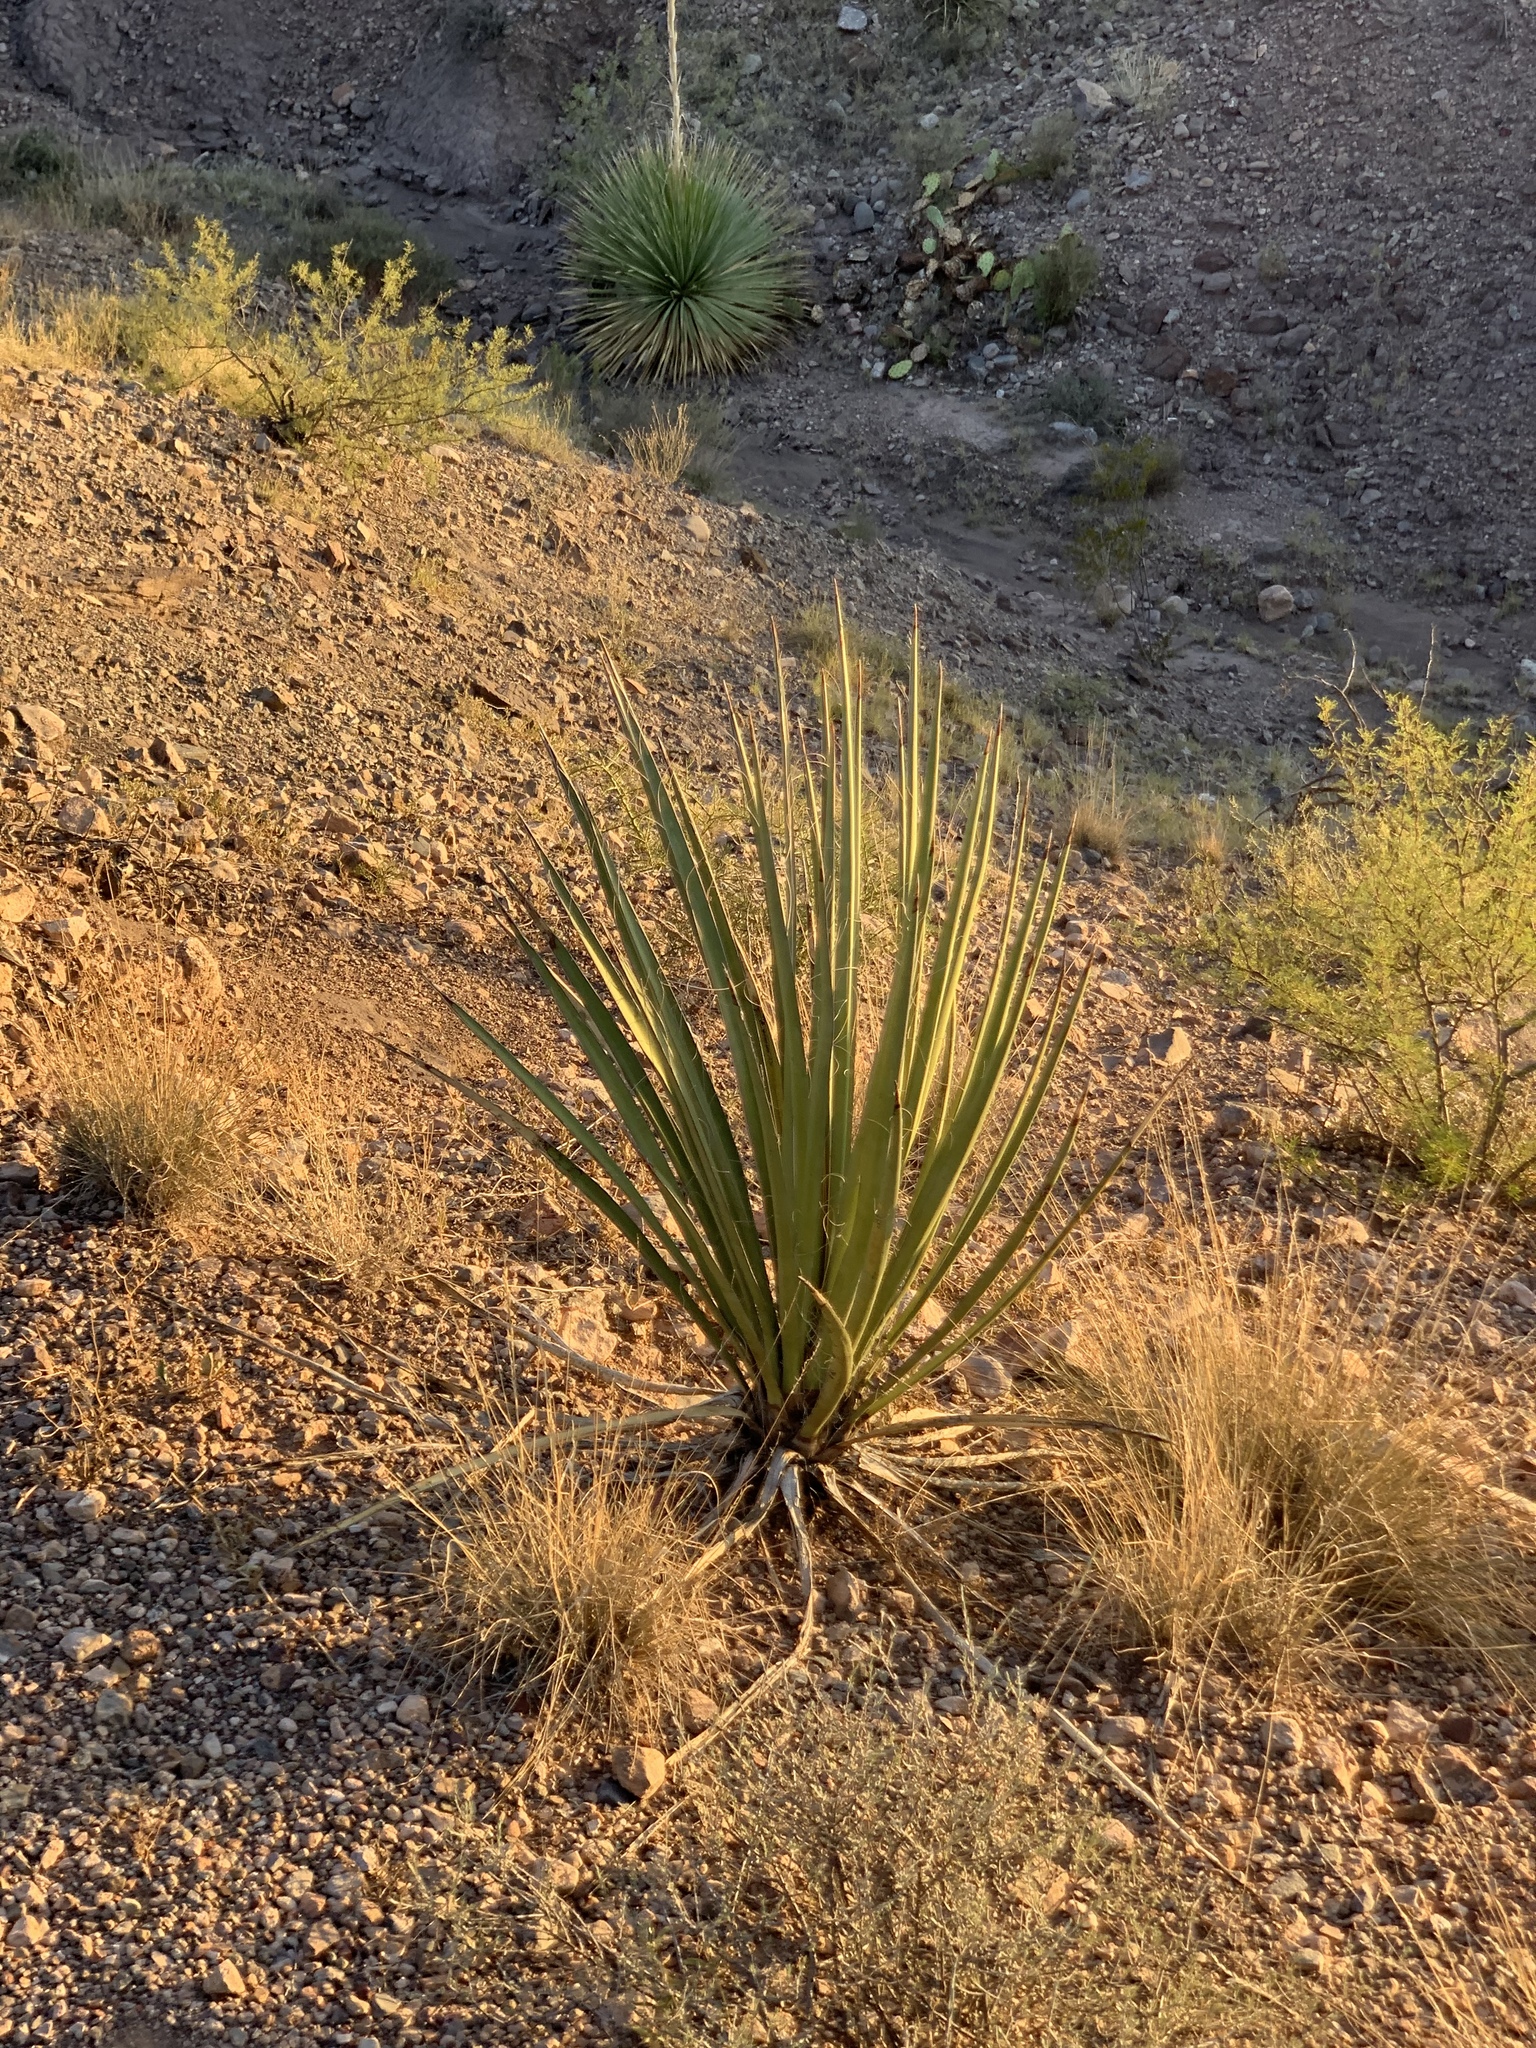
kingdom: Plantae
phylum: Tracheophyta
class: Liliopsida
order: Asparagales
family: Asparagaceae
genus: Yucca
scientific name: Yucca baccata
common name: Banana yucca
